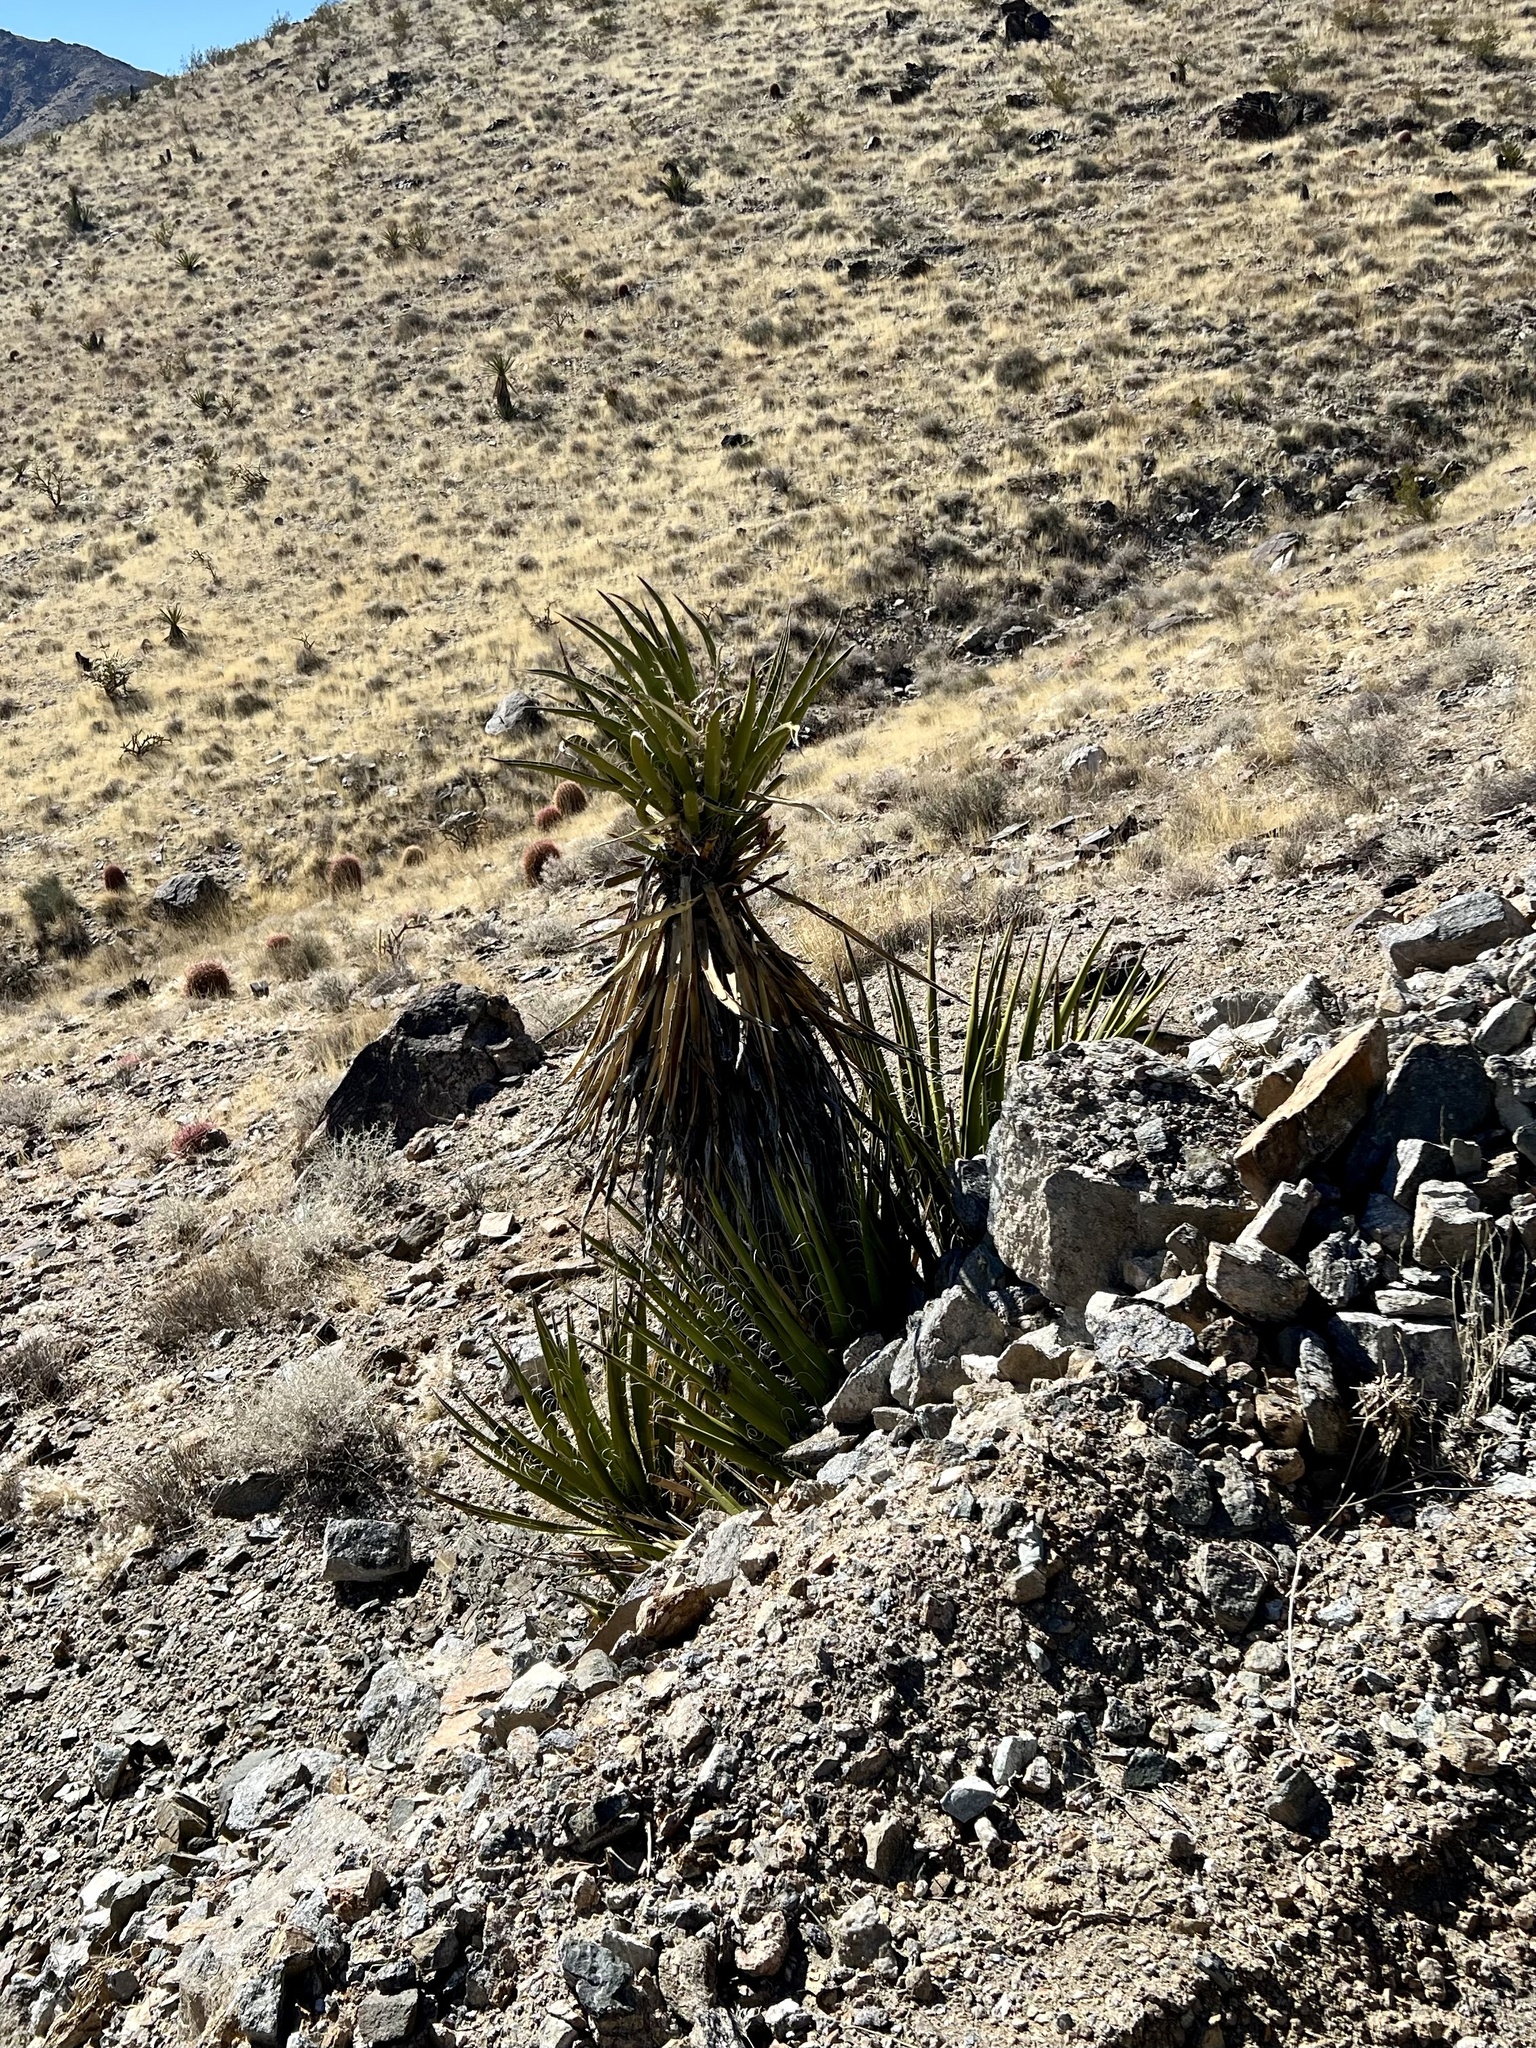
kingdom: Plantae
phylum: Tracheophyta
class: Liliopsida
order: Asparagales
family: Asparagaceae
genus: Yucca
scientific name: Yucca schidigera
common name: Mojave yucca
